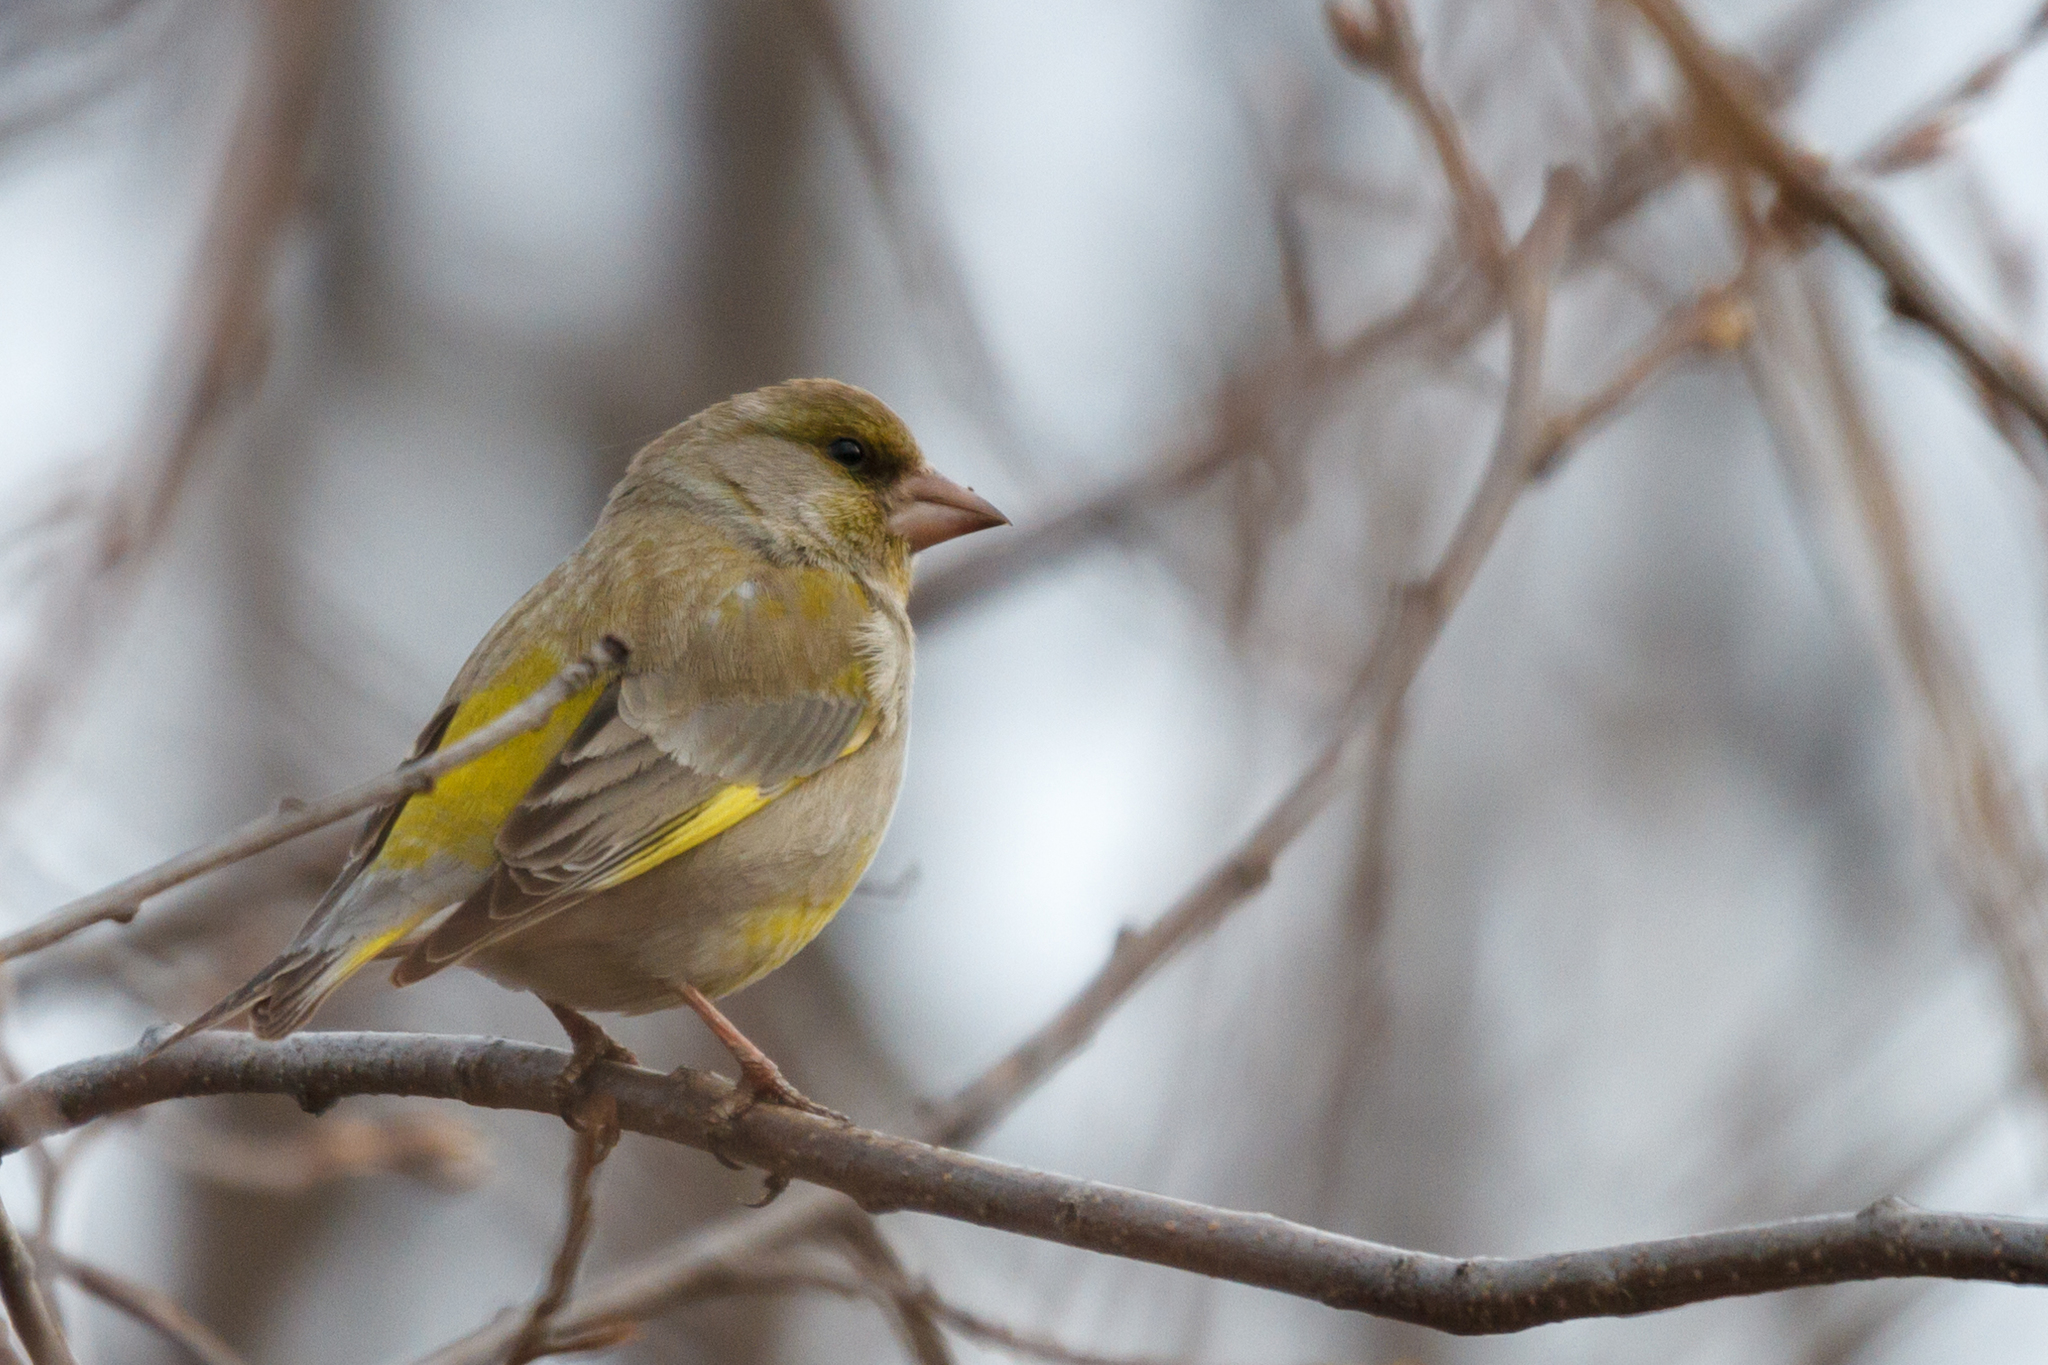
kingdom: Plantae
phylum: Tracheophyta
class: Liliopsida
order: Poales
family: Poaceae
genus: Chloris
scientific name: Chloris chloris
